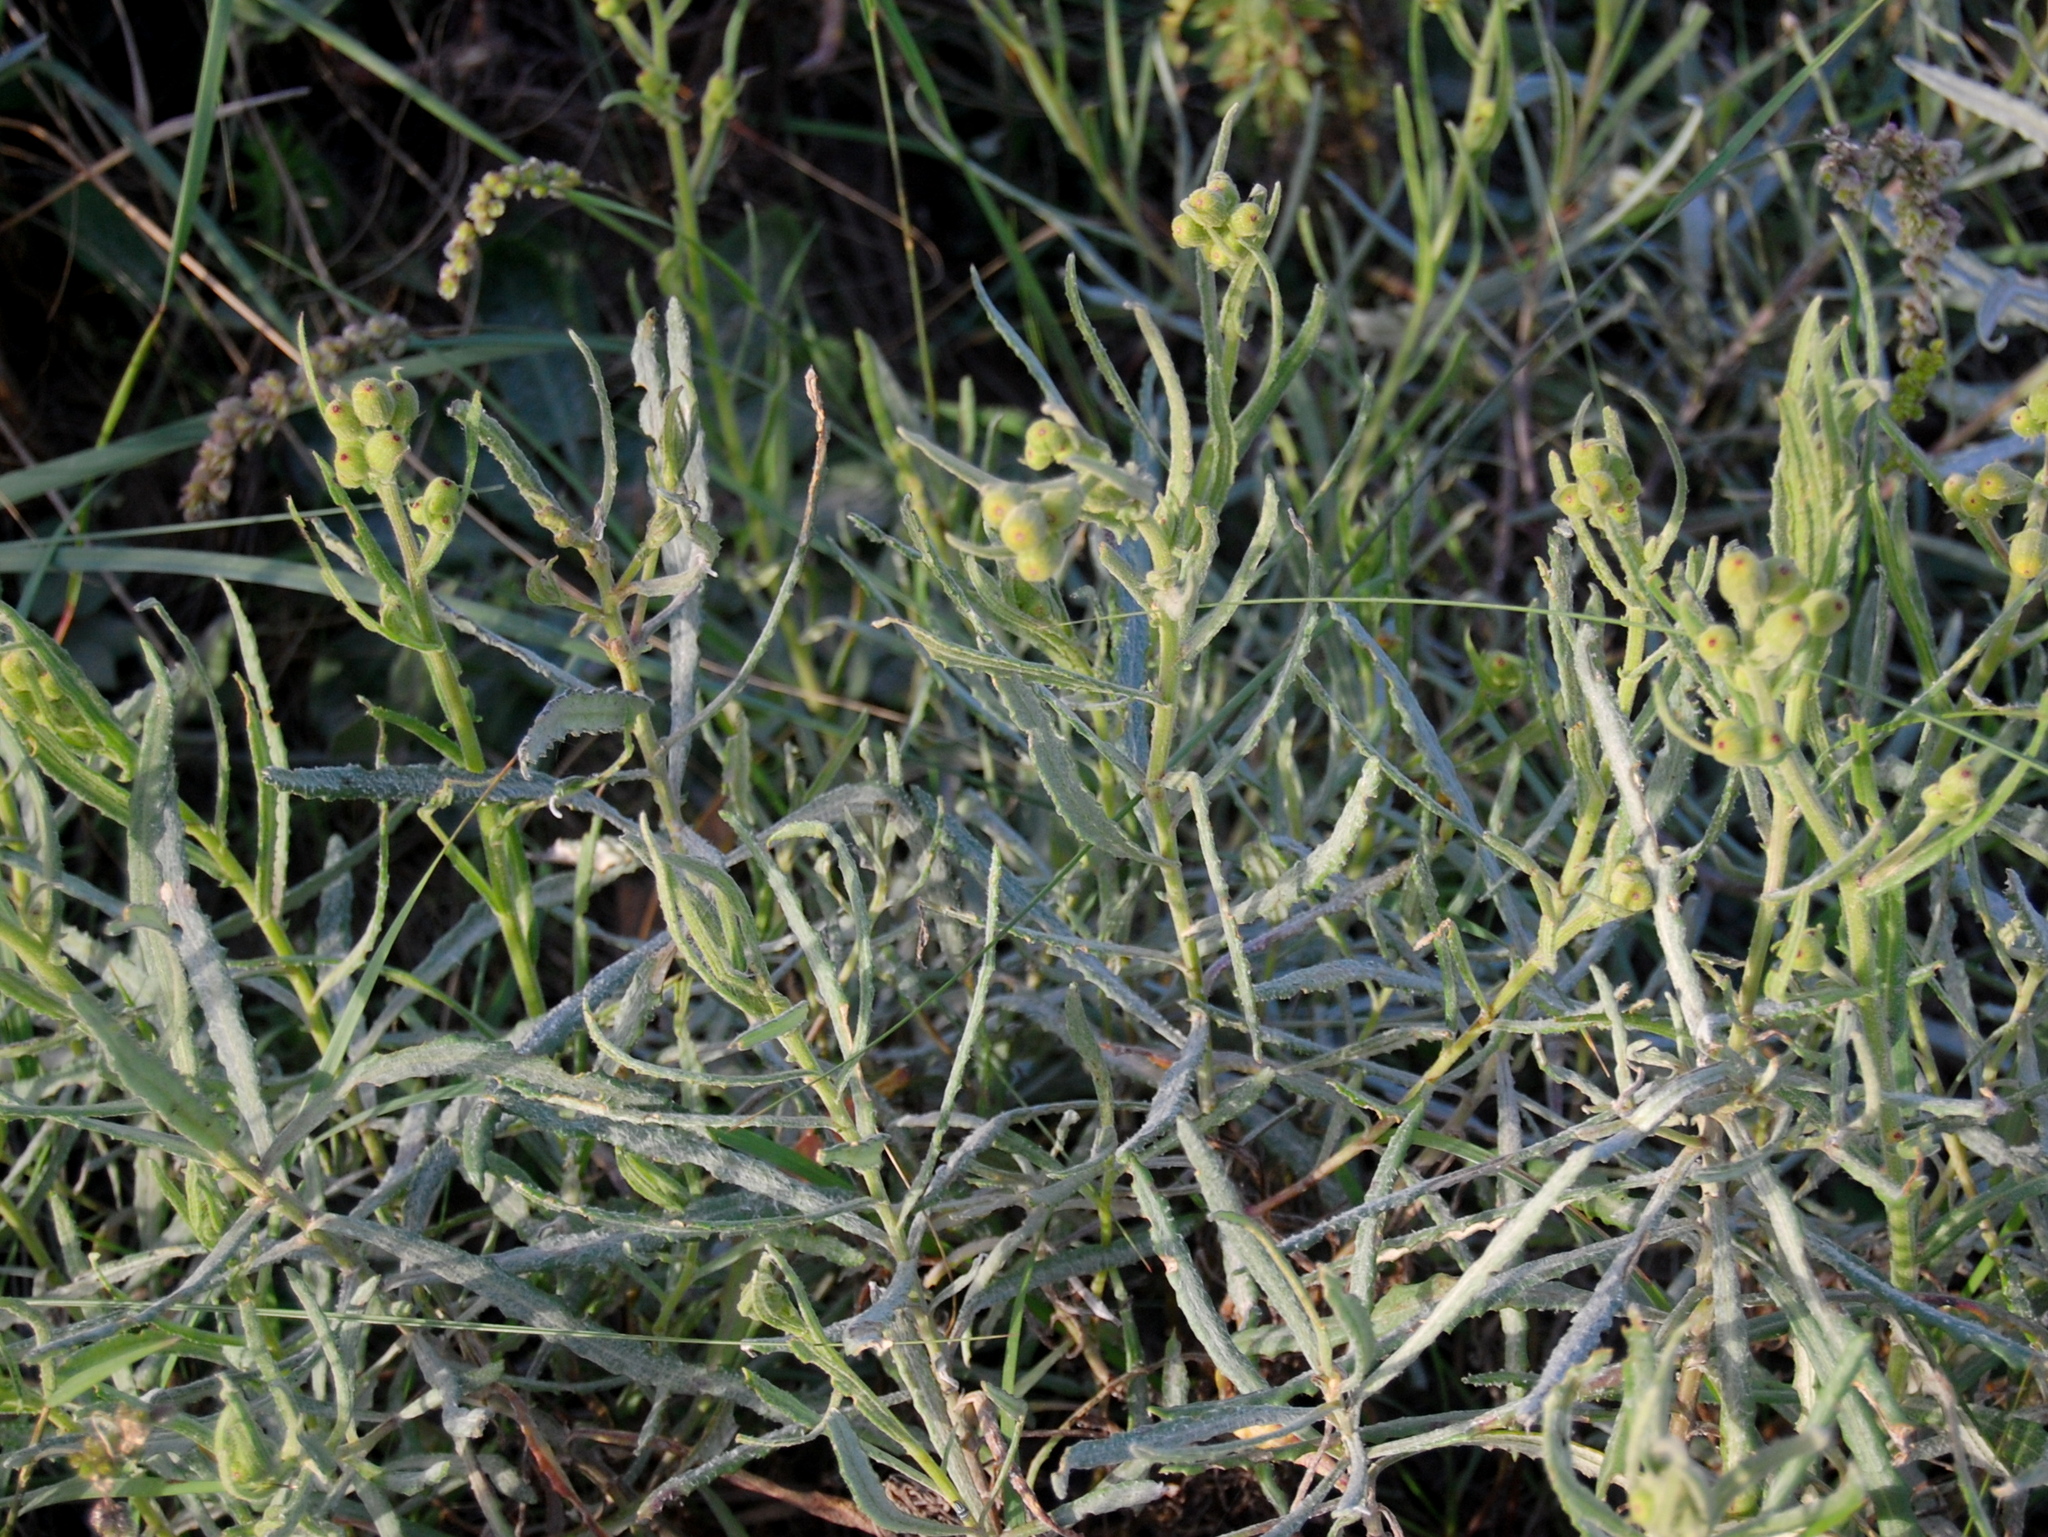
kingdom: Plantae
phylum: Tracheophyta
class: Magnoliopsida
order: Asterales
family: Asteraceae
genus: Senecio
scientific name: Senecio heterotrichius
